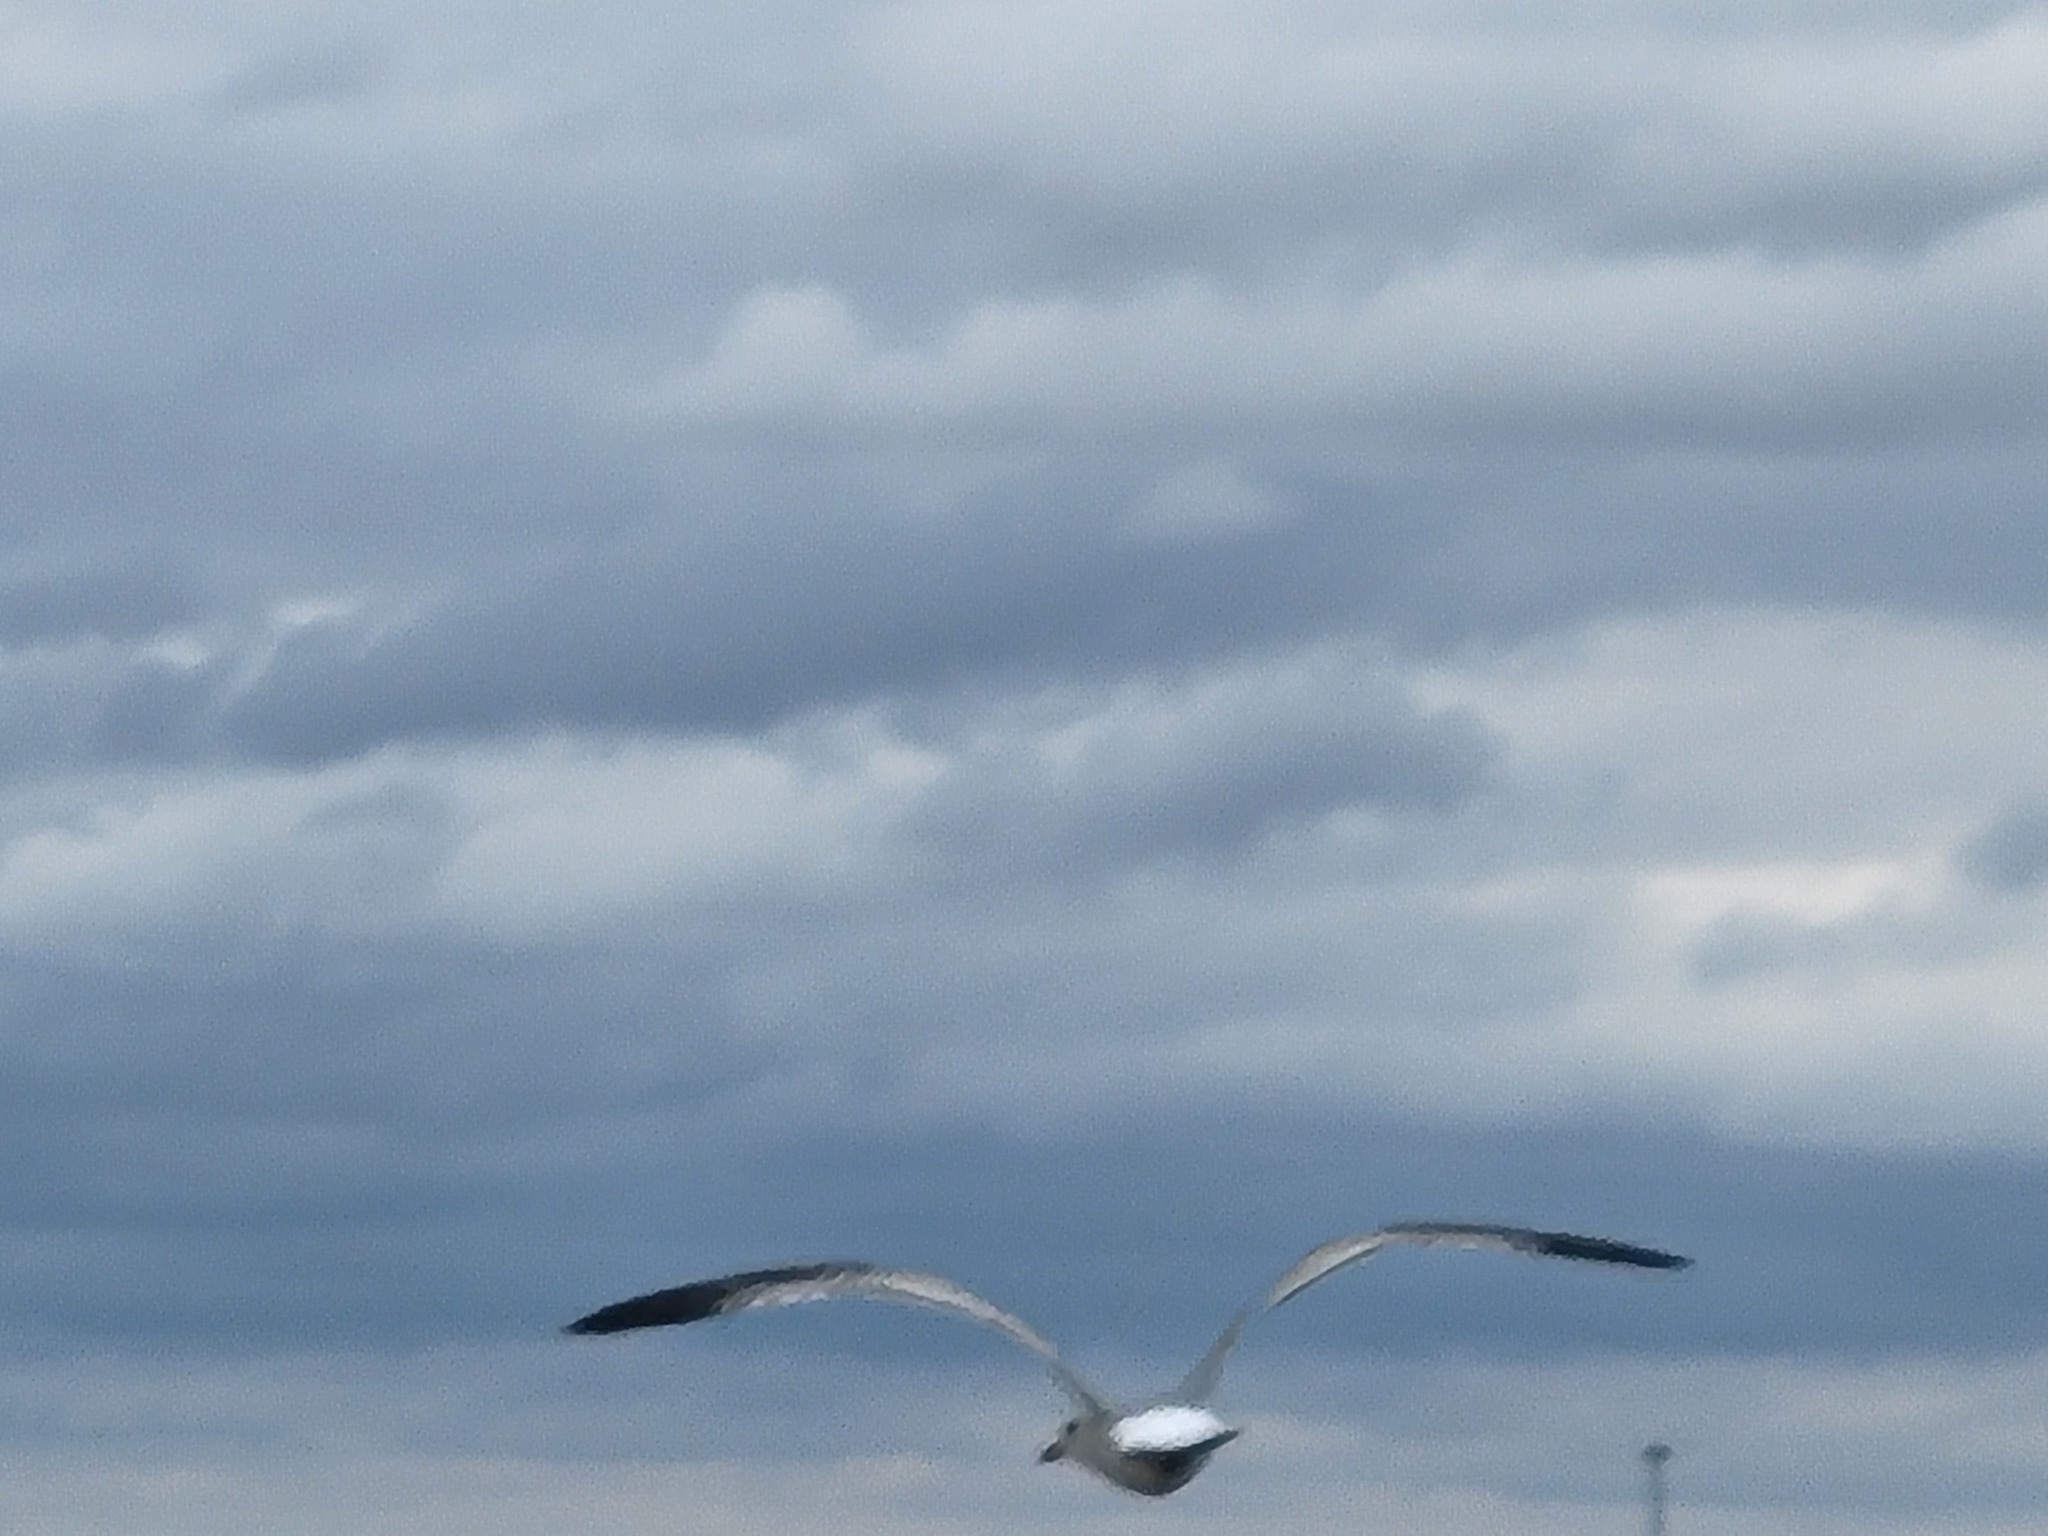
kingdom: Animalia
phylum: Chordata
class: Aves
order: Charadriiformes
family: Laridae
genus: Larus
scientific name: Larus delawarensis
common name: Ring-billed gull
